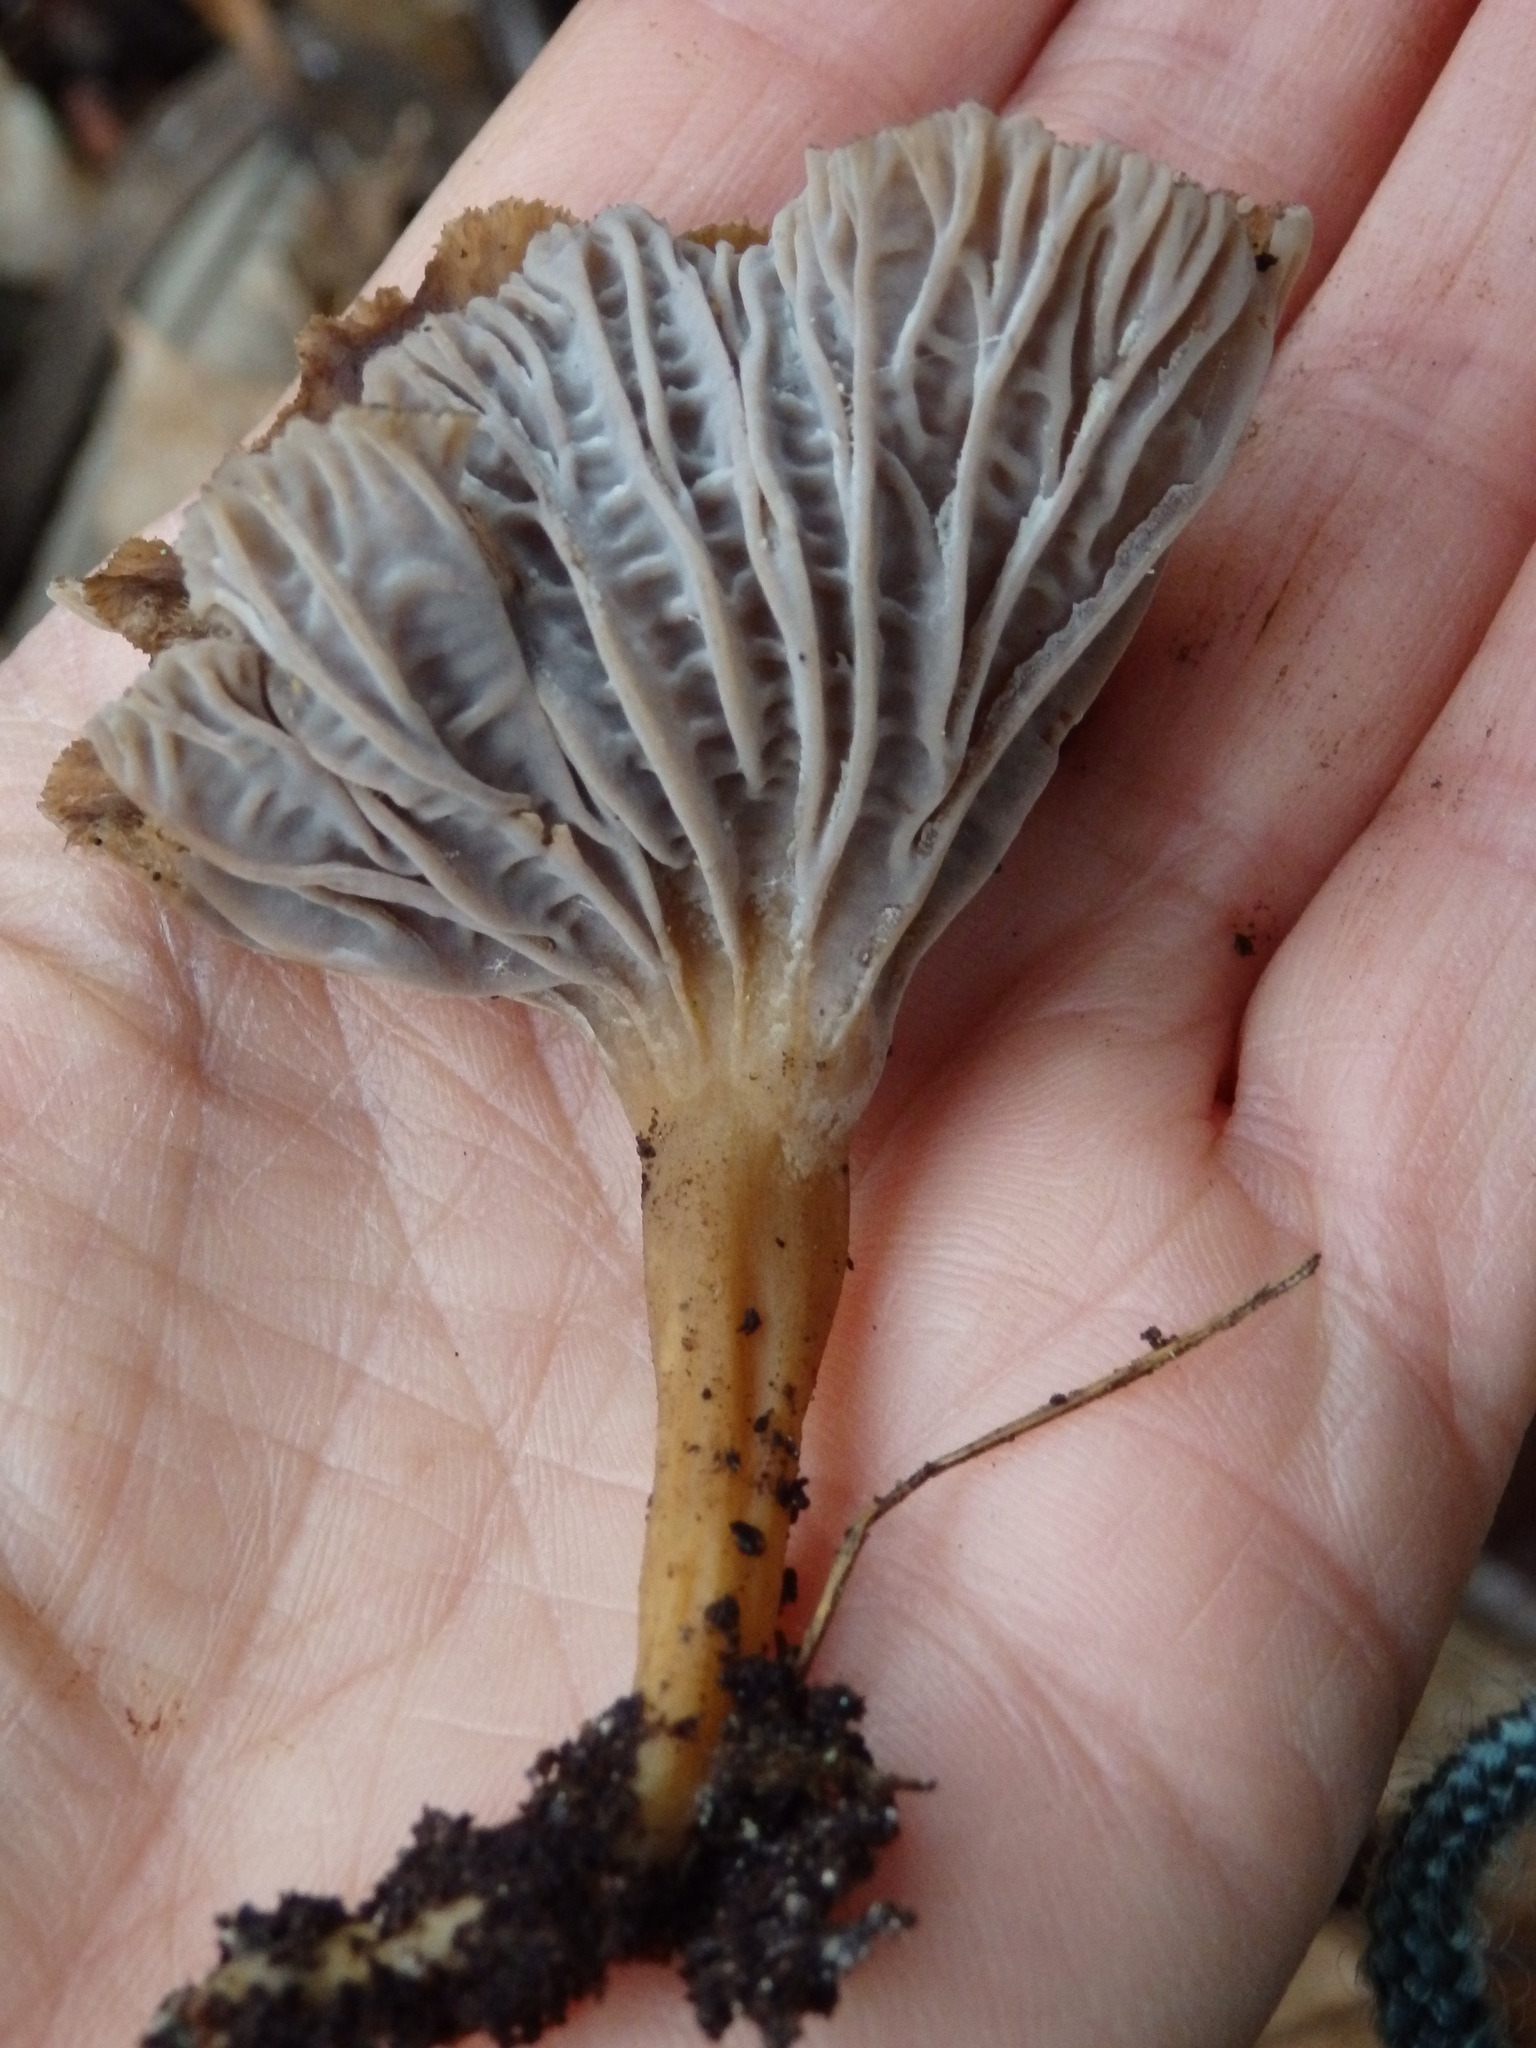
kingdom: Fungi
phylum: Basidiomycota
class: Agaricomycetes
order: Cantharellales
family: Hydnaceae
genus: Craterellus
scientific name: Craterellus tubaeformis
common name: Yellowfoot
